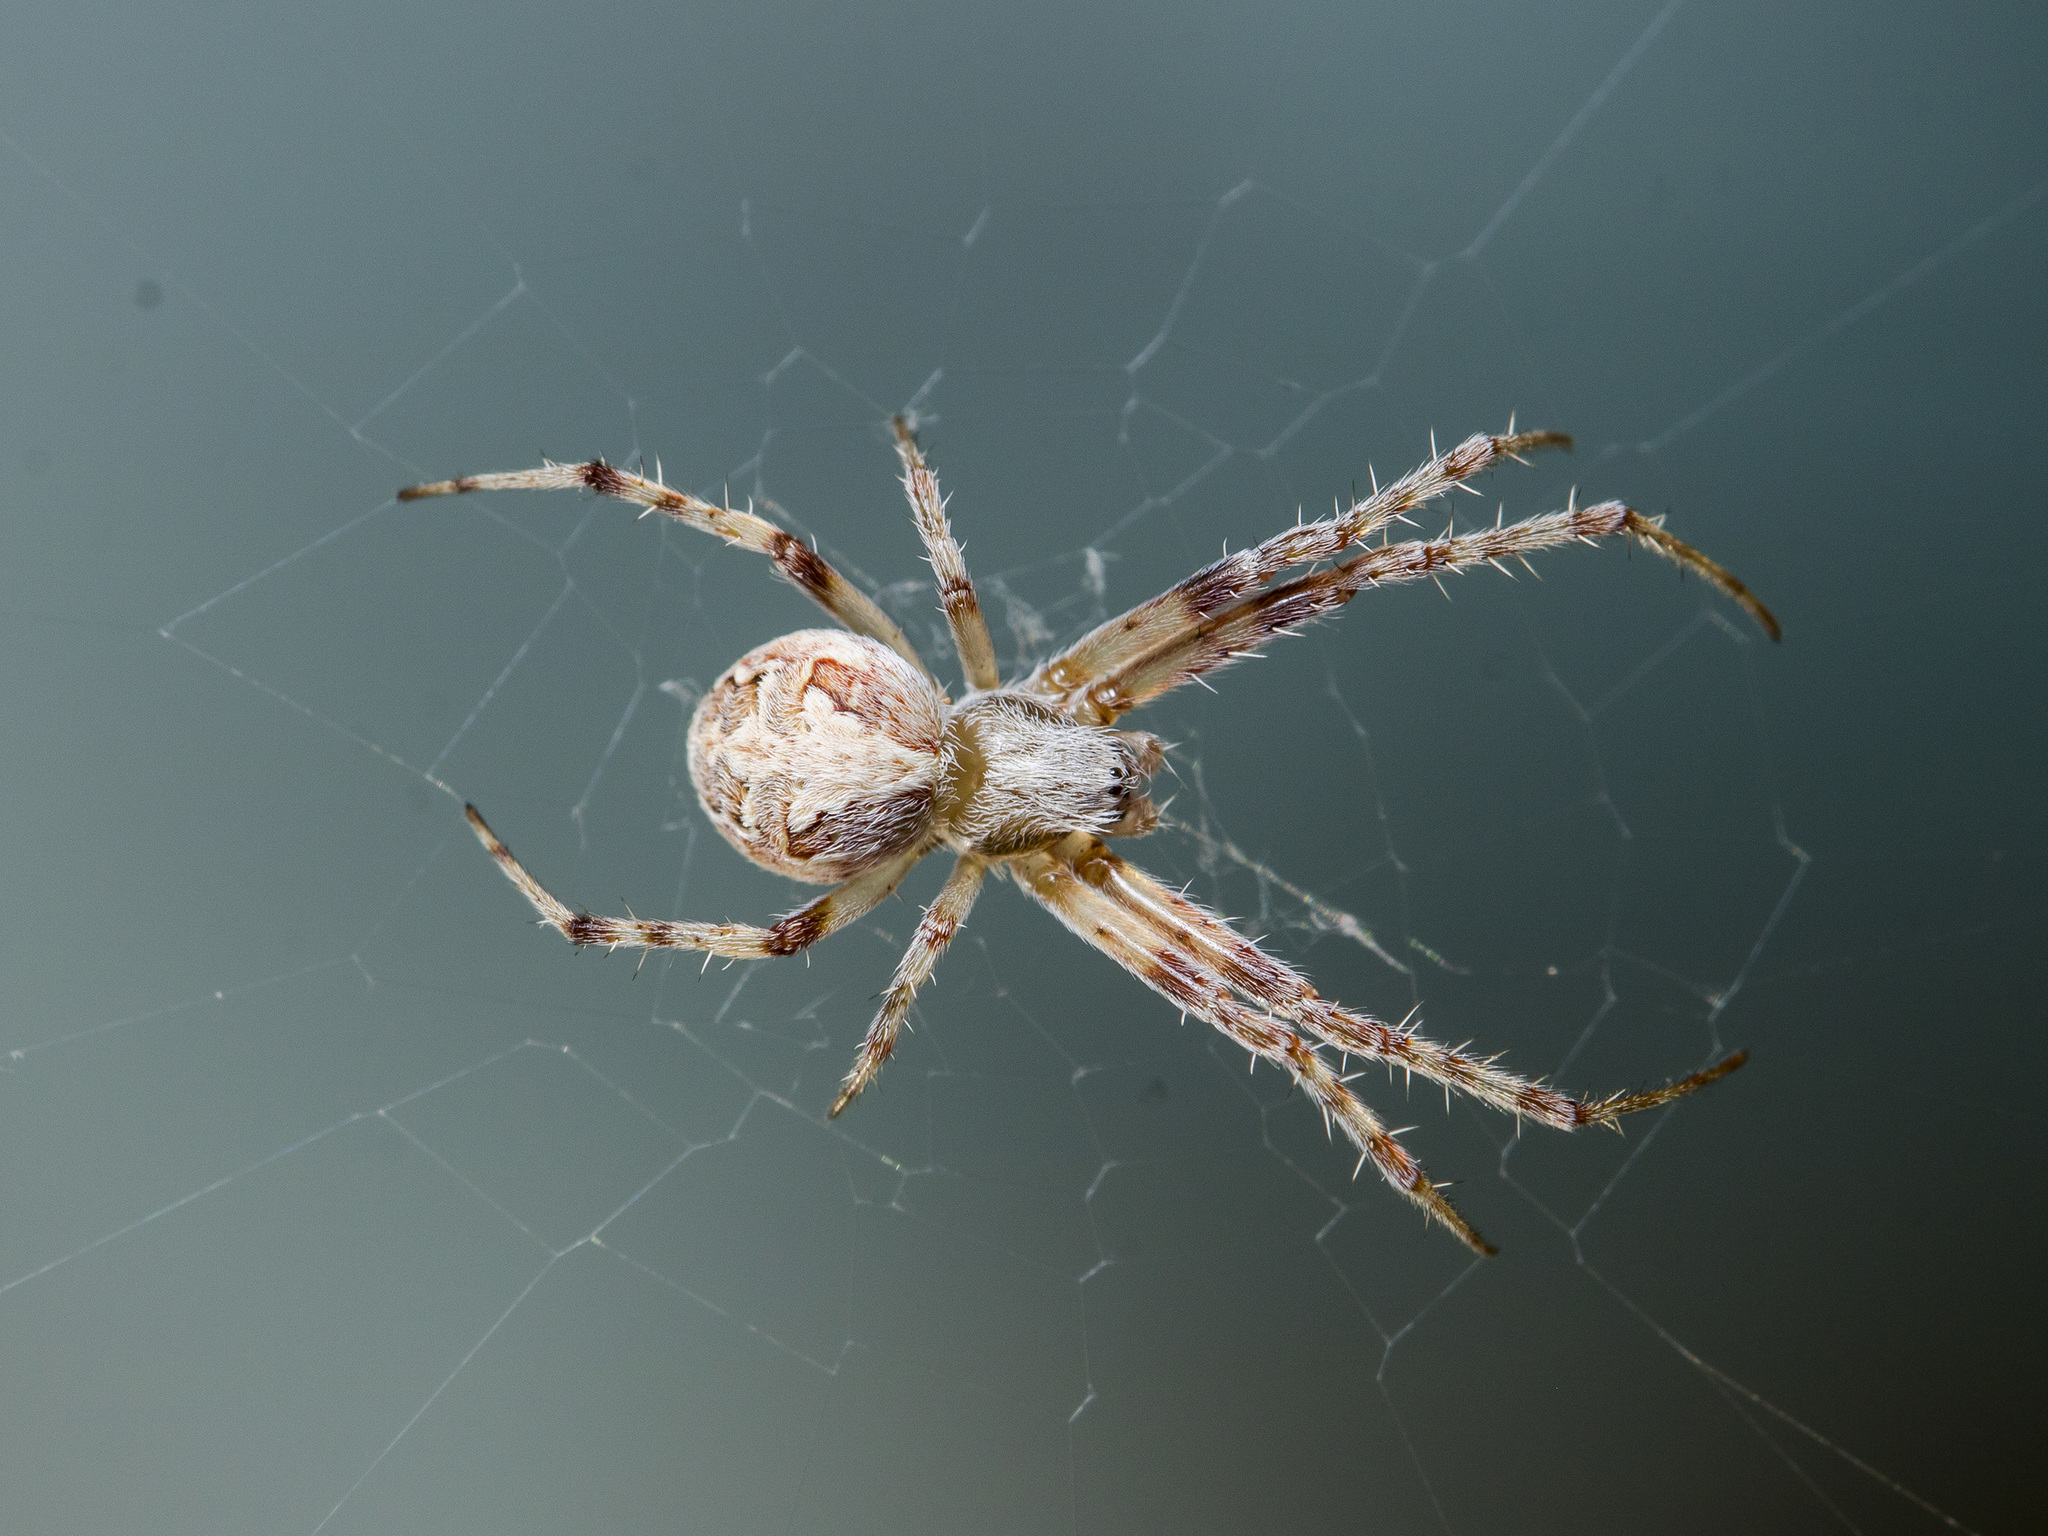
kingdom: Animalia
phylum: Arthropoda
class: Arachnida
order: Araneae
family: Araneidae
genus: Araneus
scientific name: Araneus pallasi
